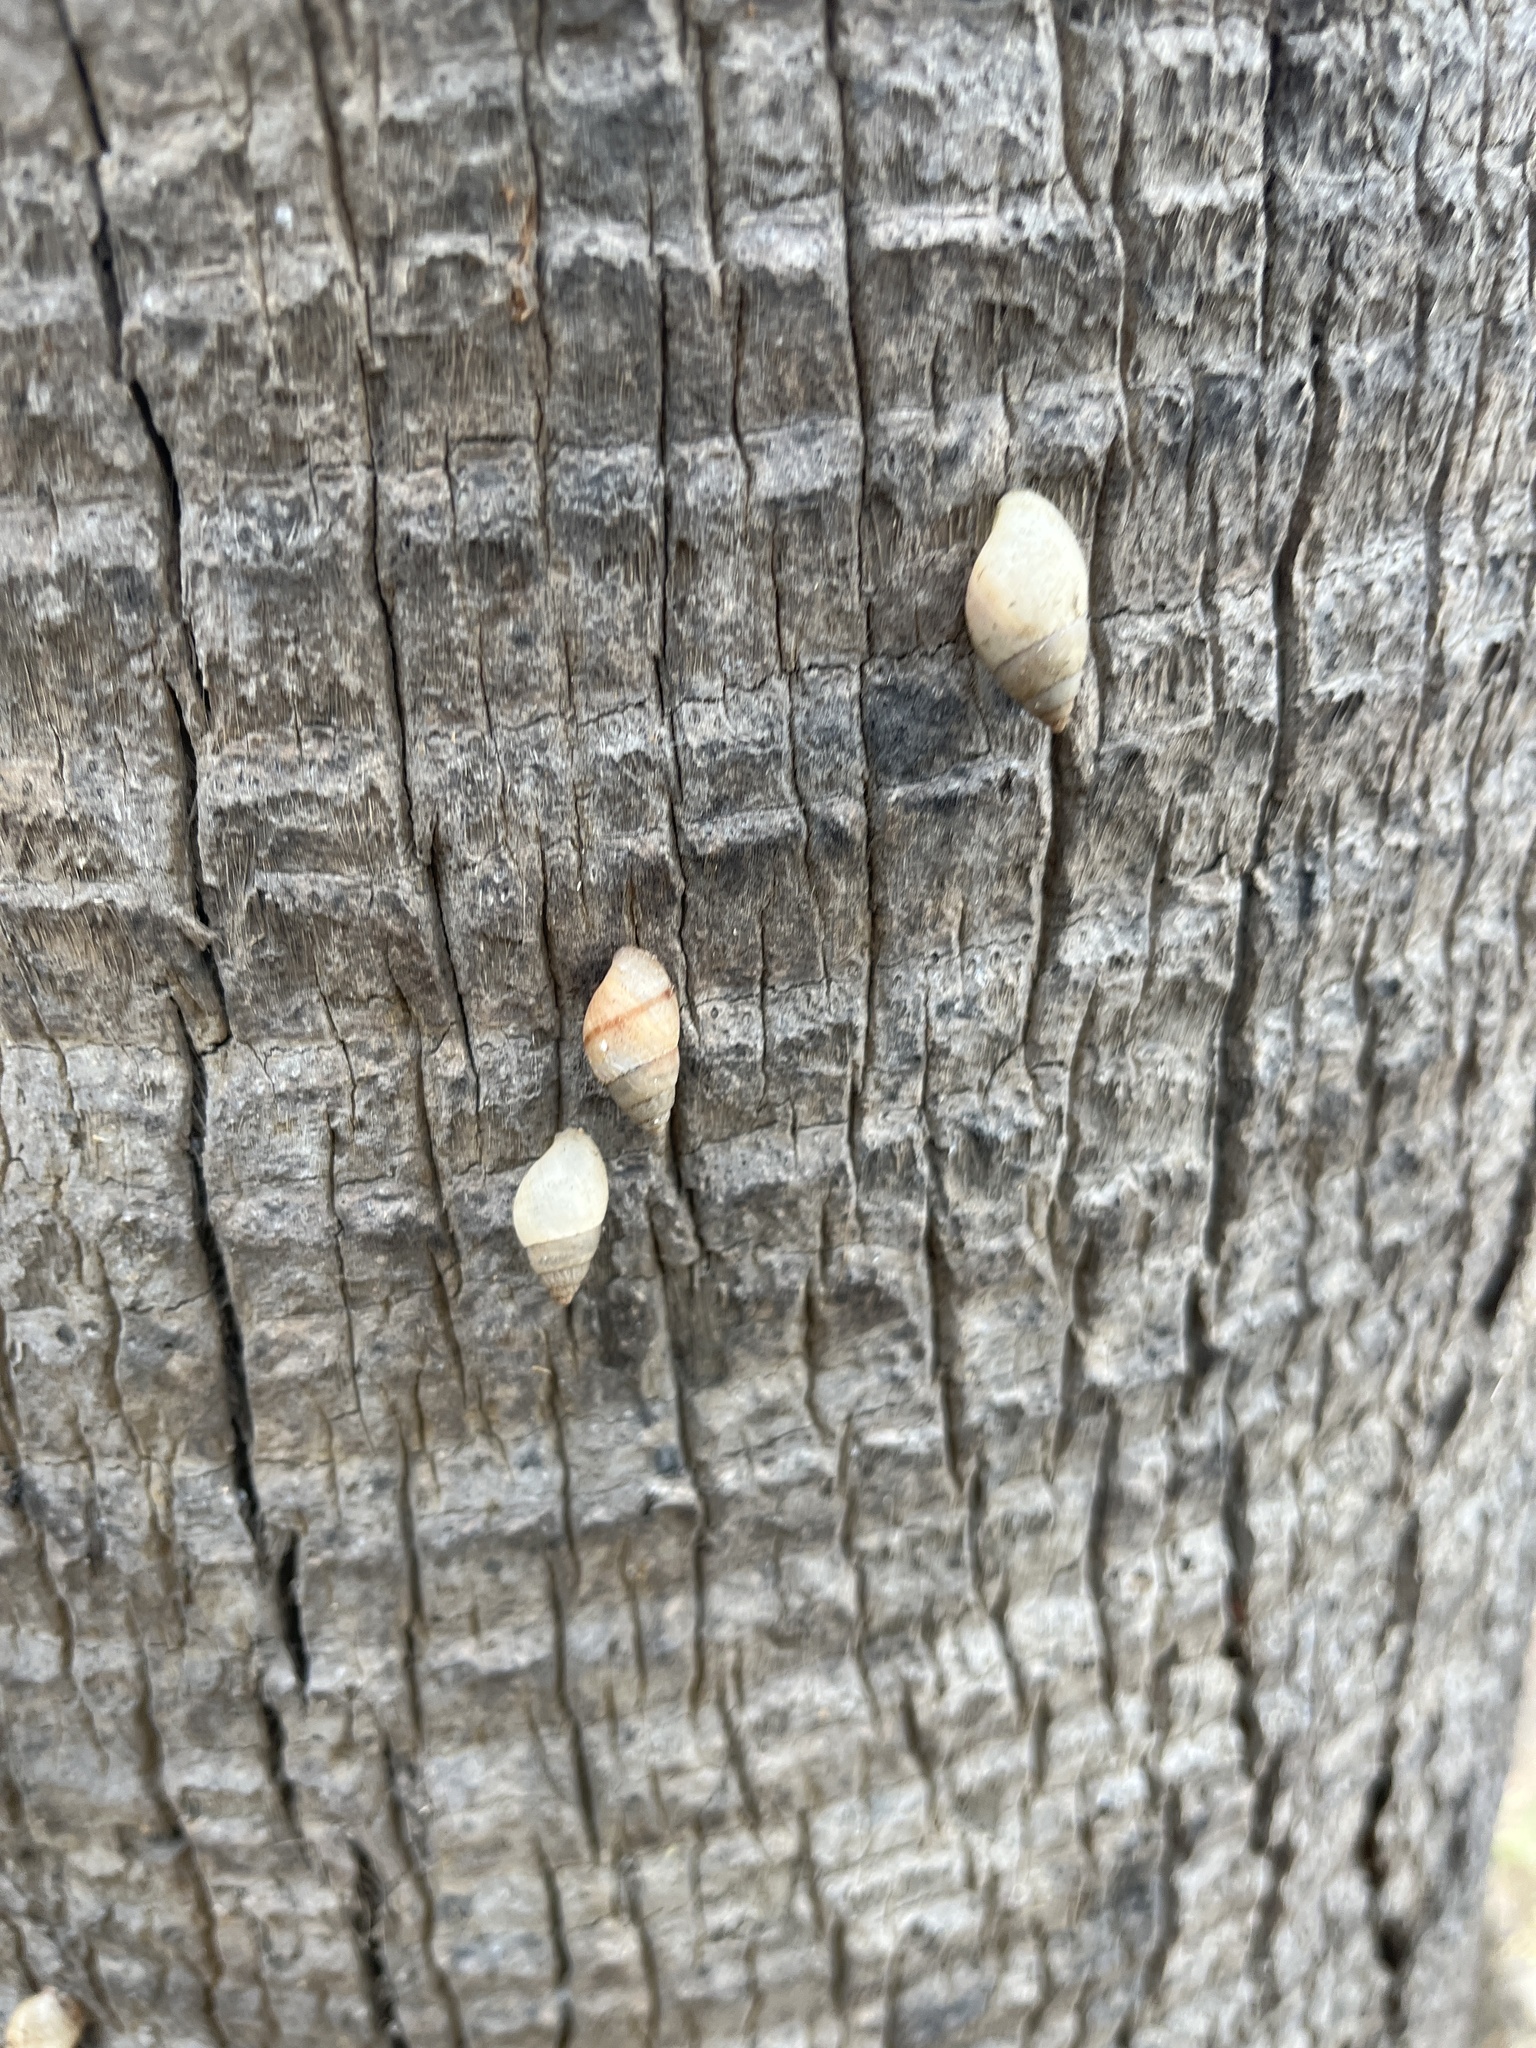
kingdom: Animalia
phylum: Mollusca
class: Gastropoda
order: Stylommatophora
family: Bulimulidae
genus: Bulimulus
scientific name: Bulimulus guadalupensis
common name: West indian bulimulus
